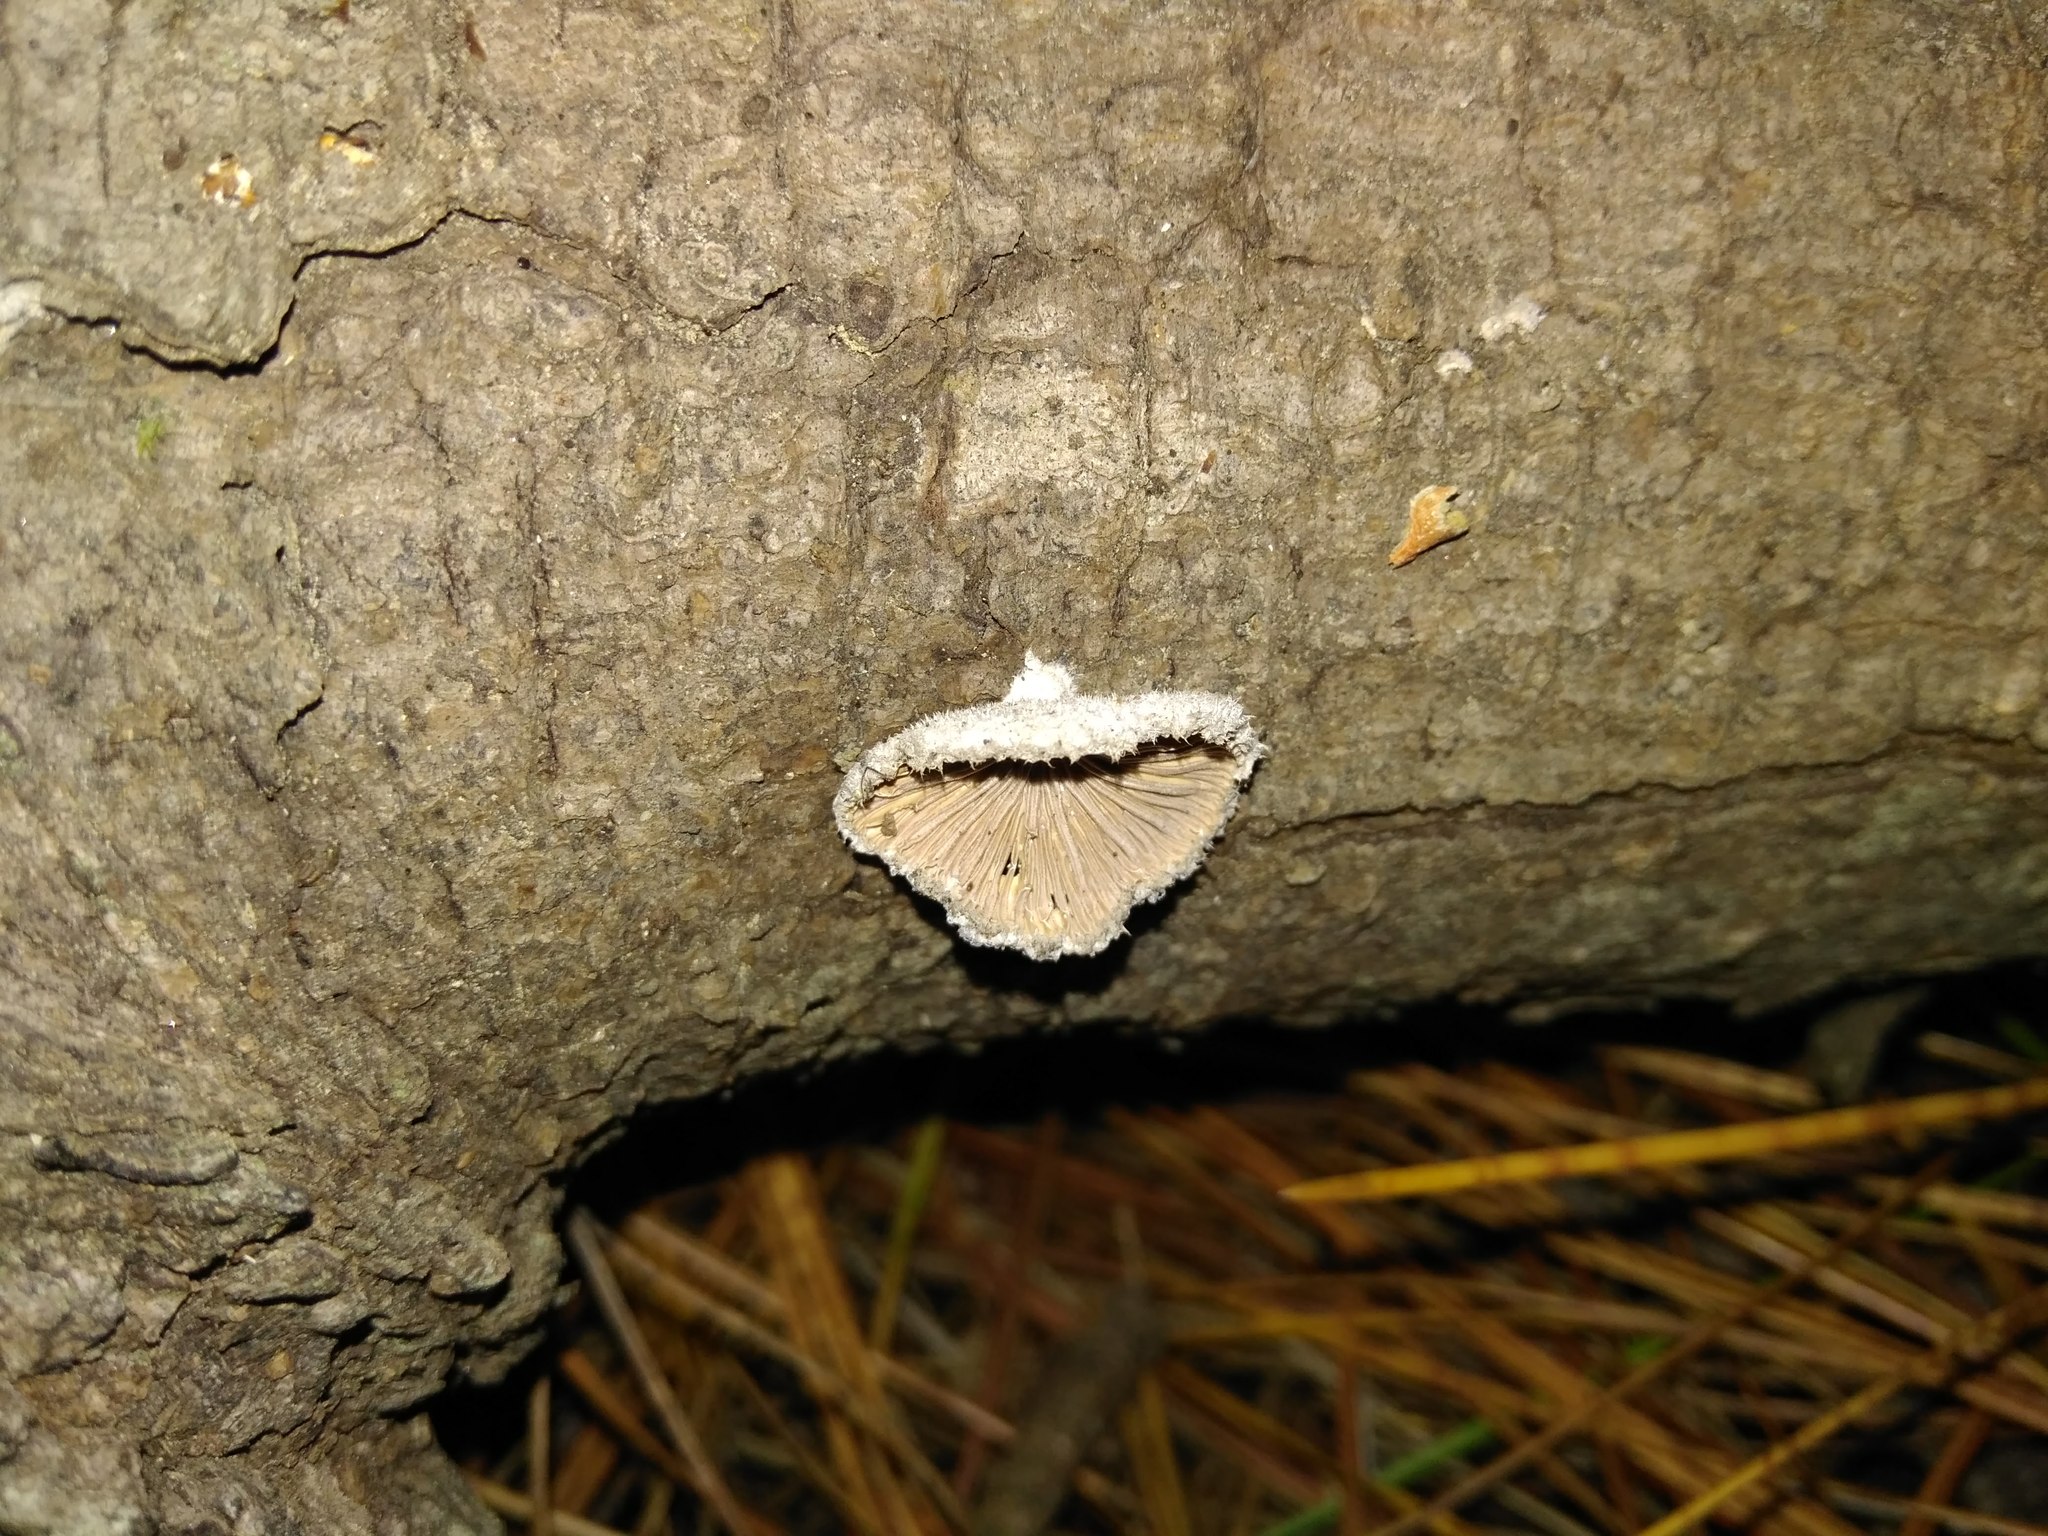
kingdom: Fungi
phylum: Basidiomycota
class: Agaricomycetes
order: Agaricales
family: Schizophyllaceae
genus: Schizophyllum
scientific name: Schizophyllum commune
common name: Common porecrust
